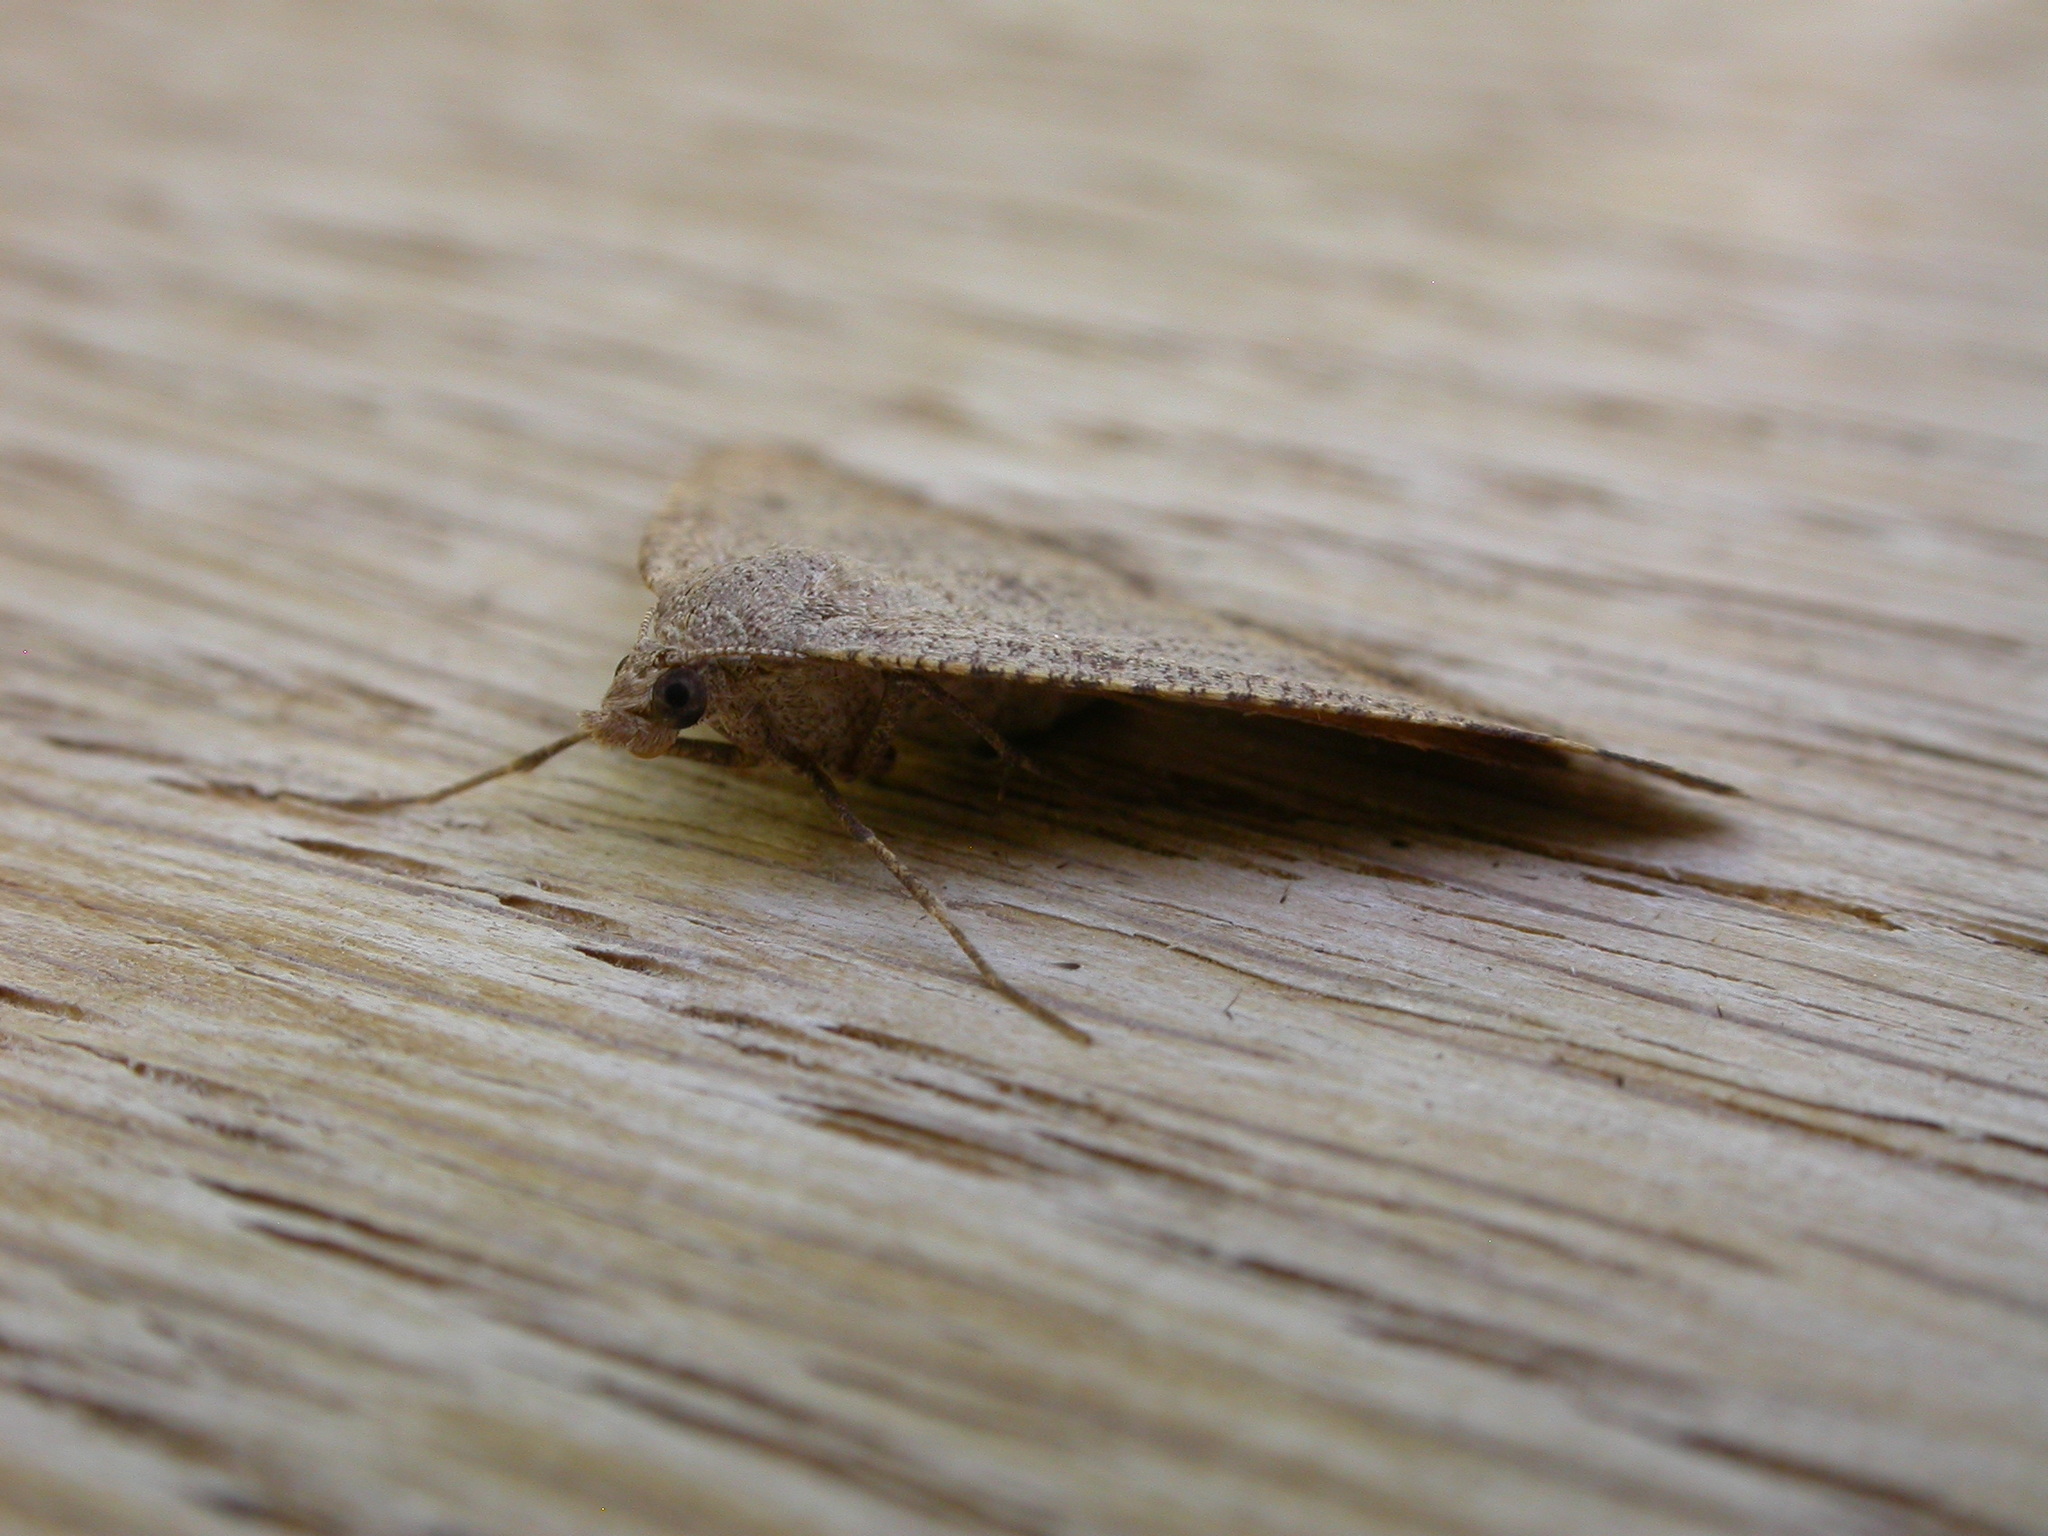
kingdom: Animalia
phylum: Arthropoda
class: Insecta
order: Lepidoptera
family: Geometridae
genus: Parosteodes
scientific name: Parosteodes fictiliaria
